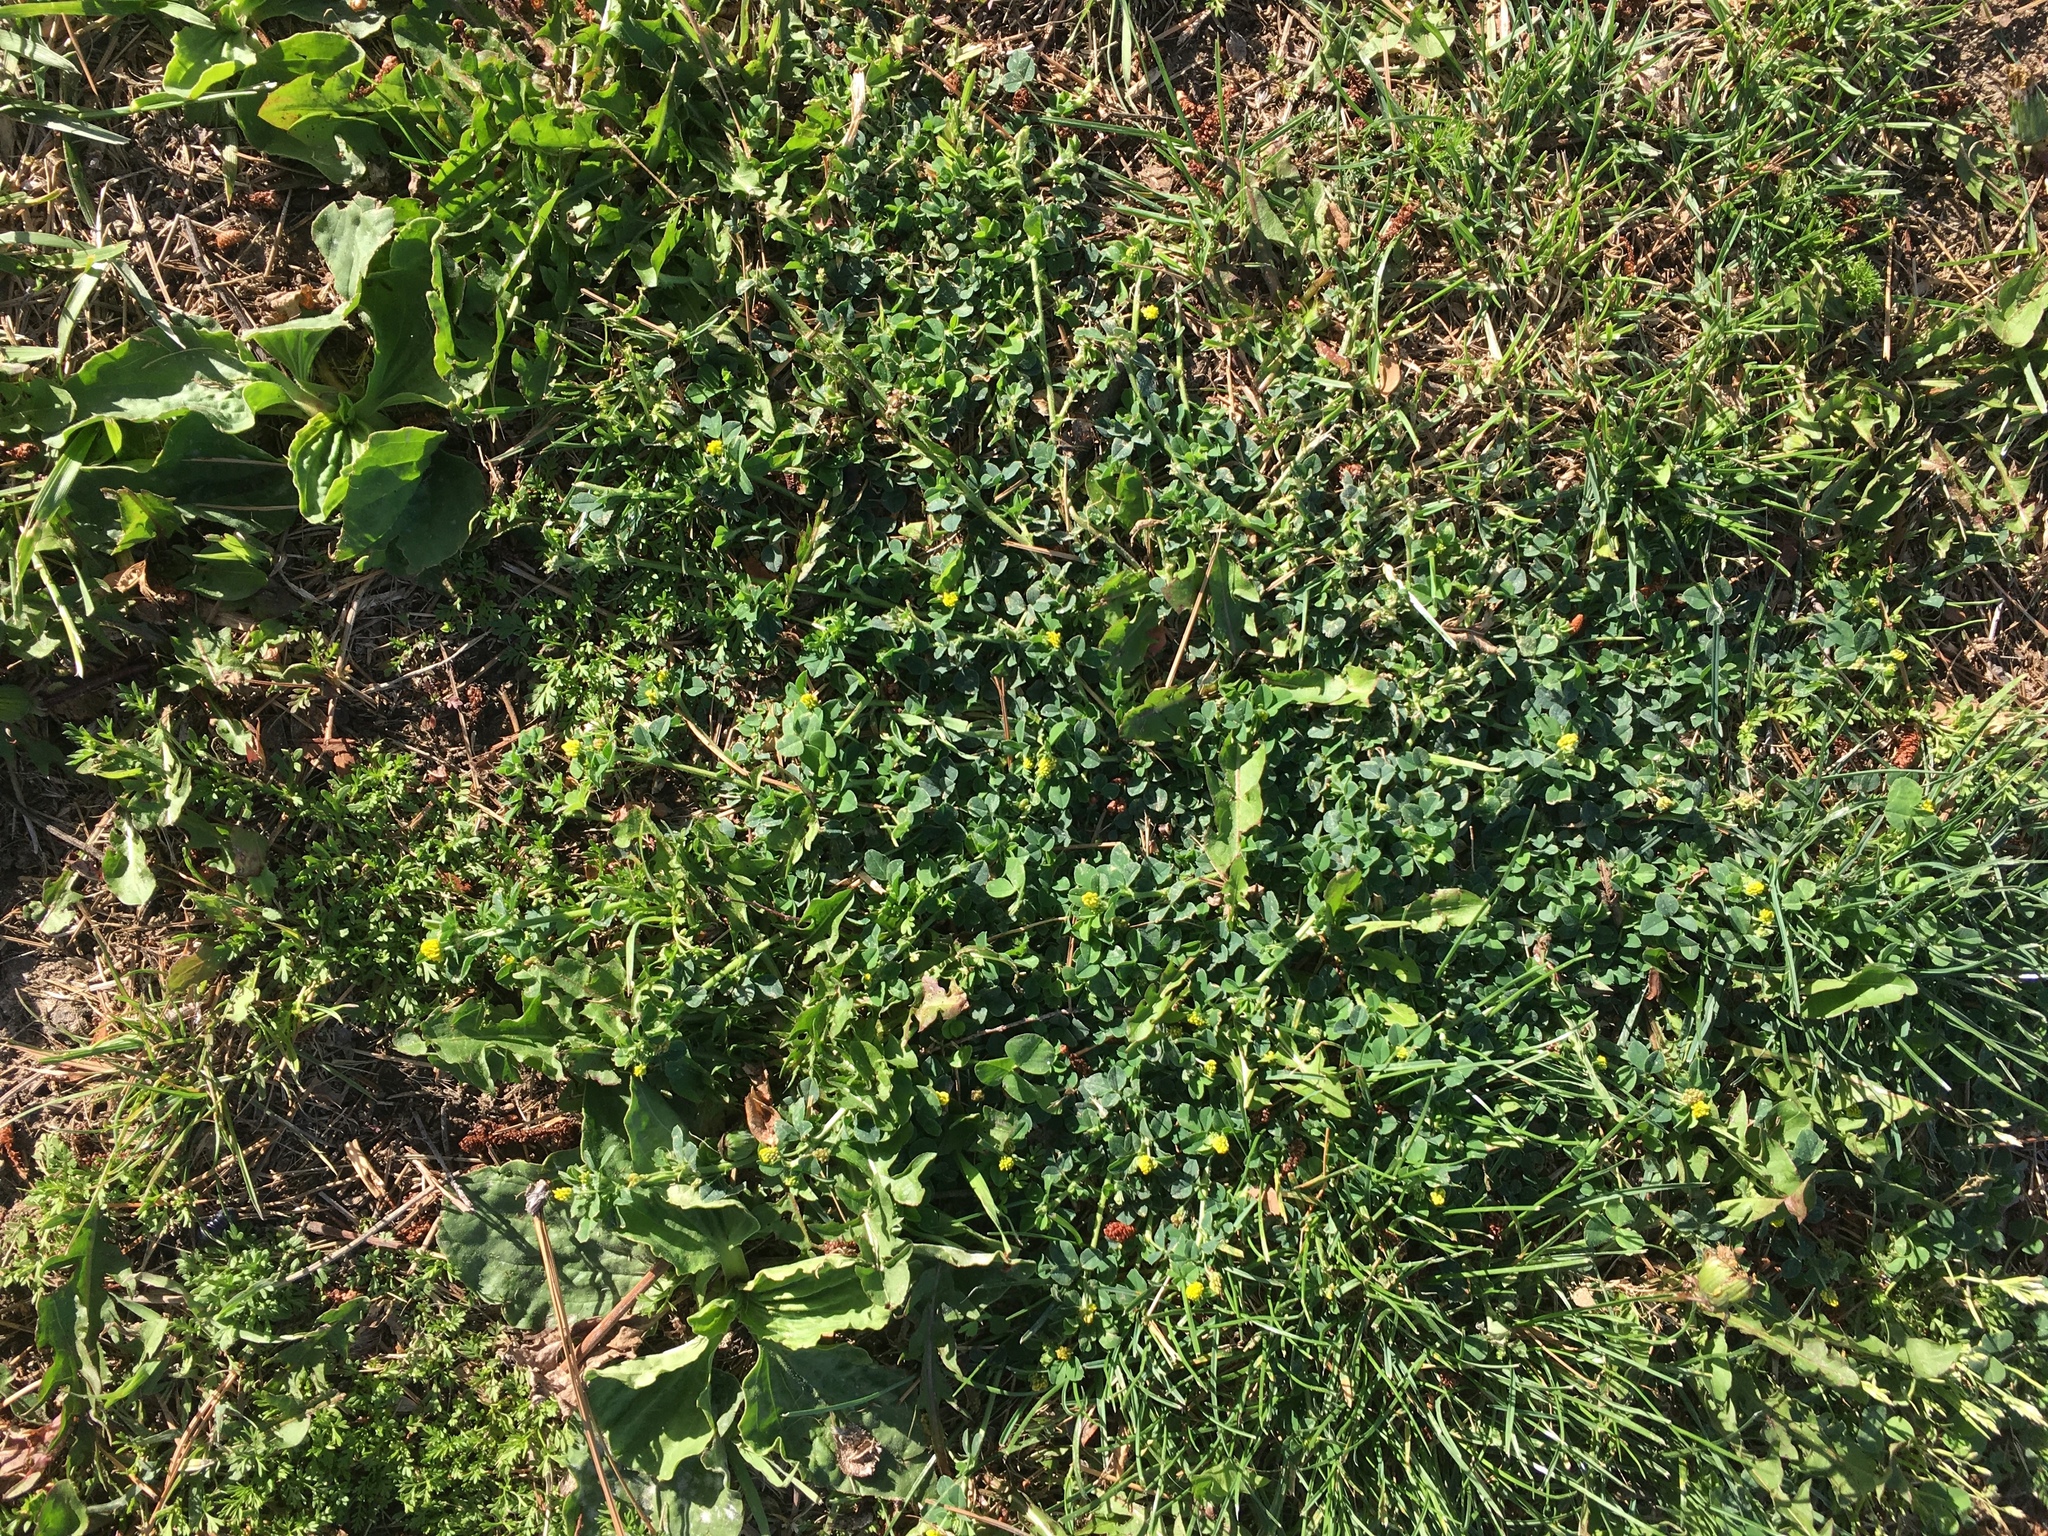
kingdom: Plantae
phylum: Tracheophyta
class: Magnoliopsida
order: Fabales
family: Fabaceae
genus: Medicago
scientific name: Medicago lupulina
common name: Black medick
